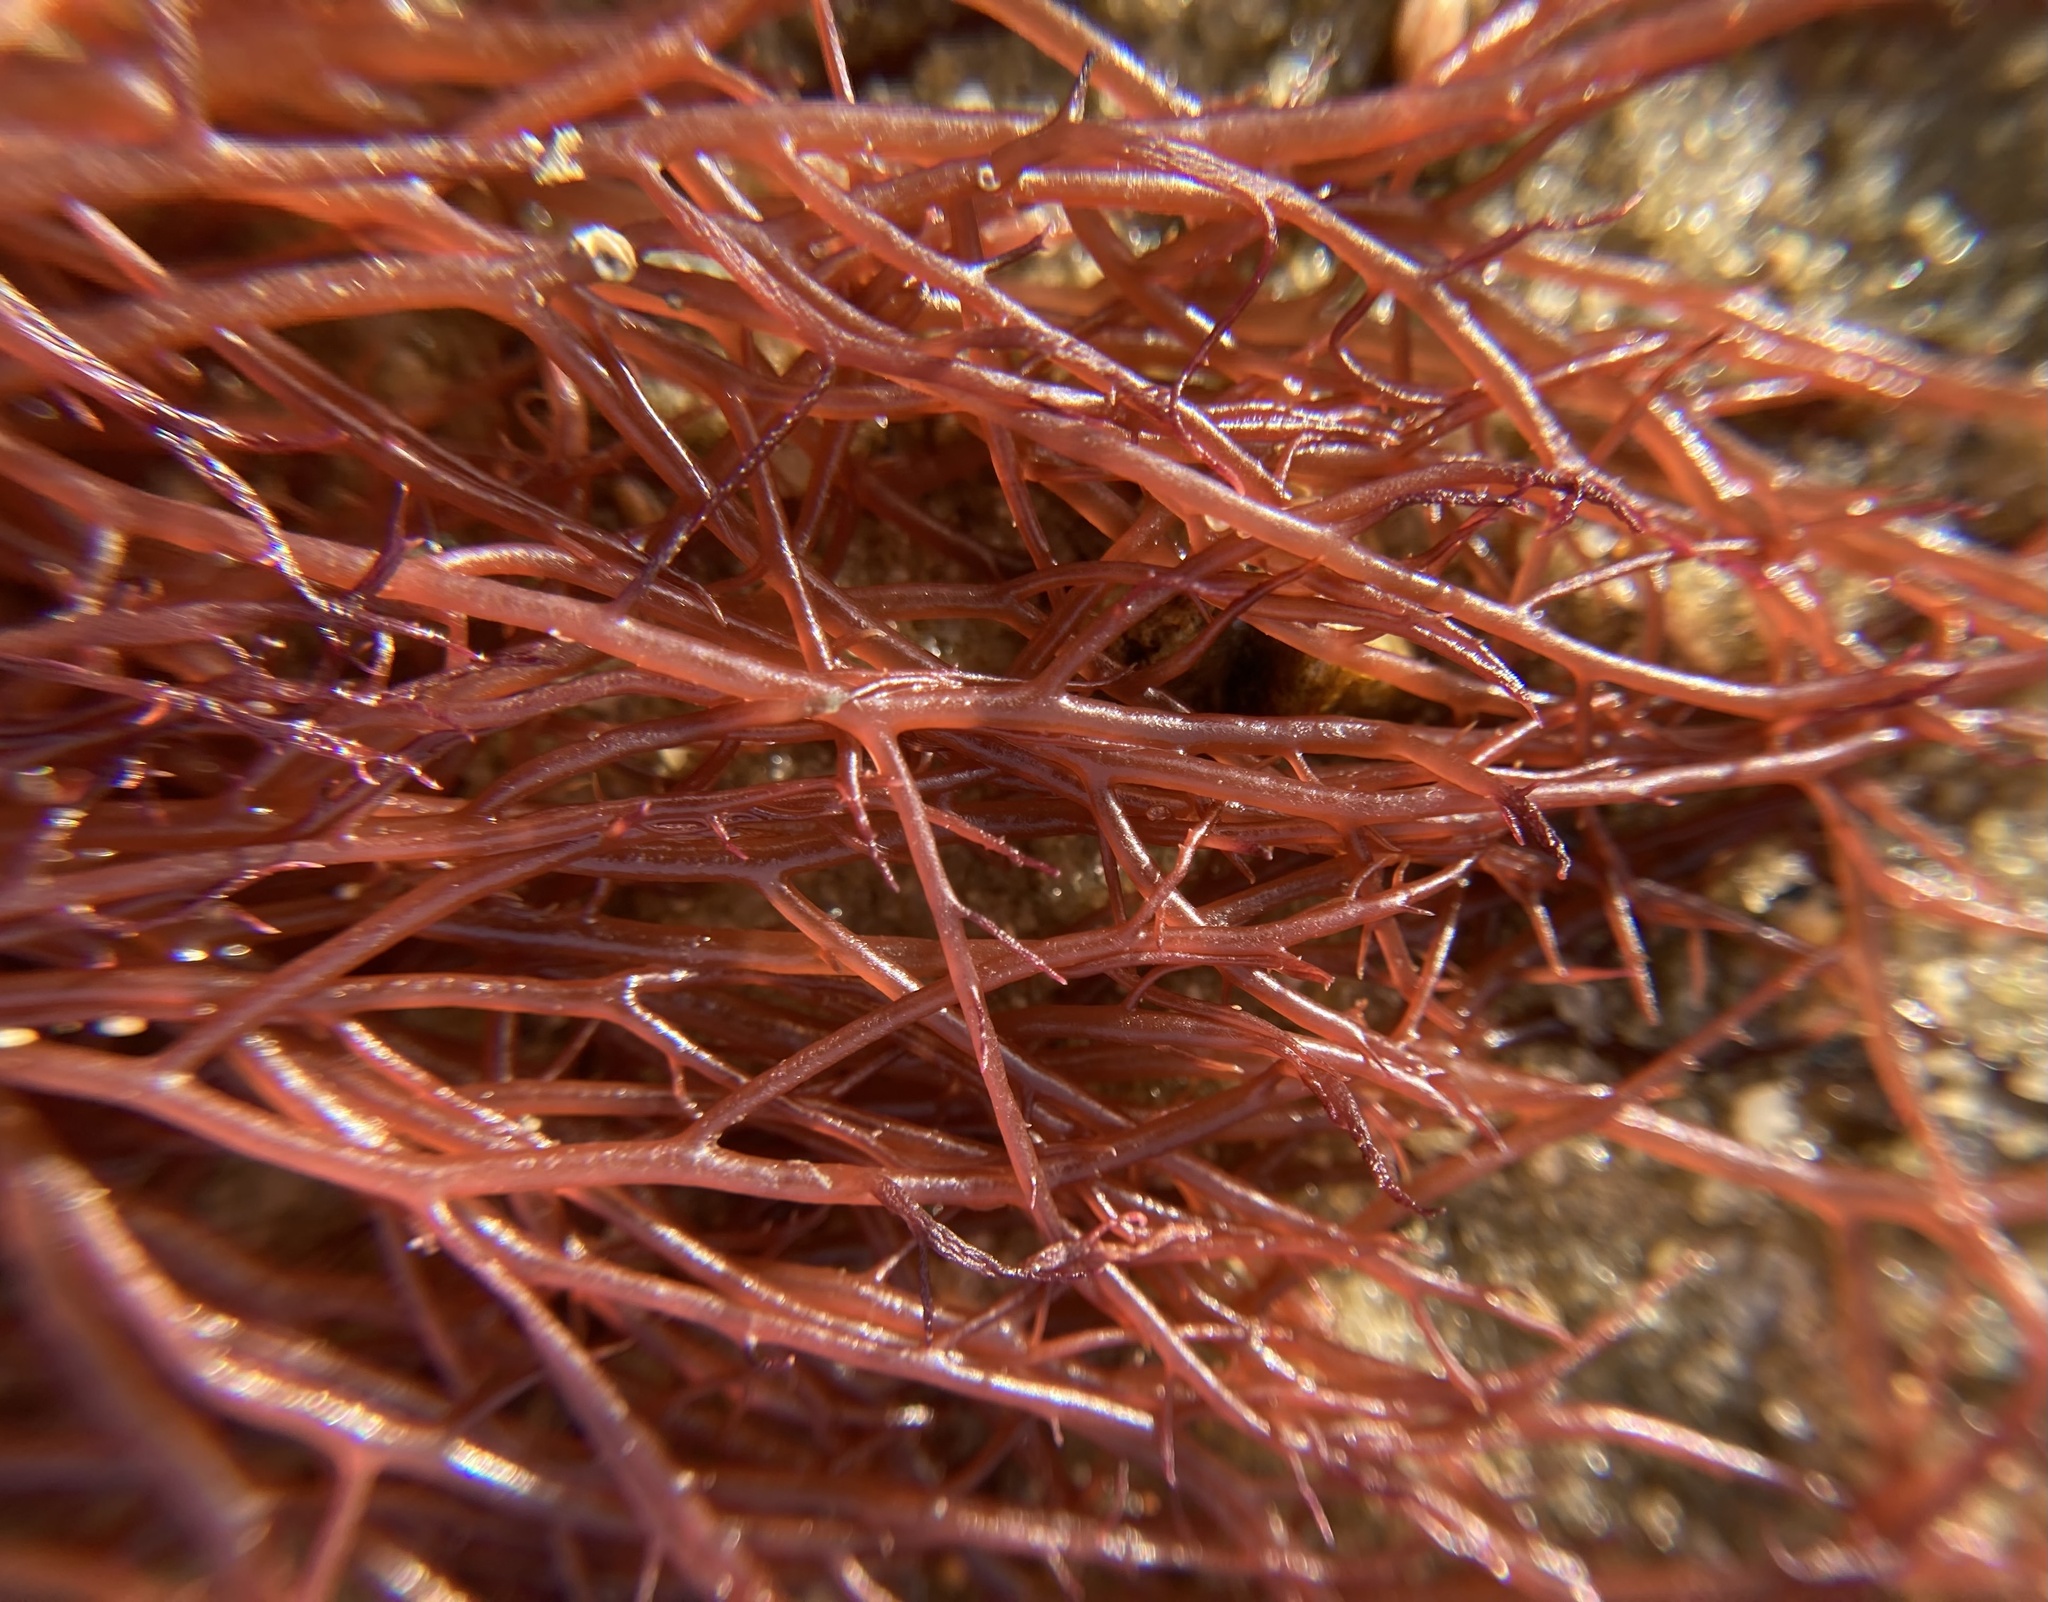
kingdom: Plantae
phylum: Rhodophyta
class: Florideophyceae
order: Gigartinales
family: Solieriaceae
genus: Agardhiella
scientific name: Agardhiella subulata
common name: Agardh's red weed
